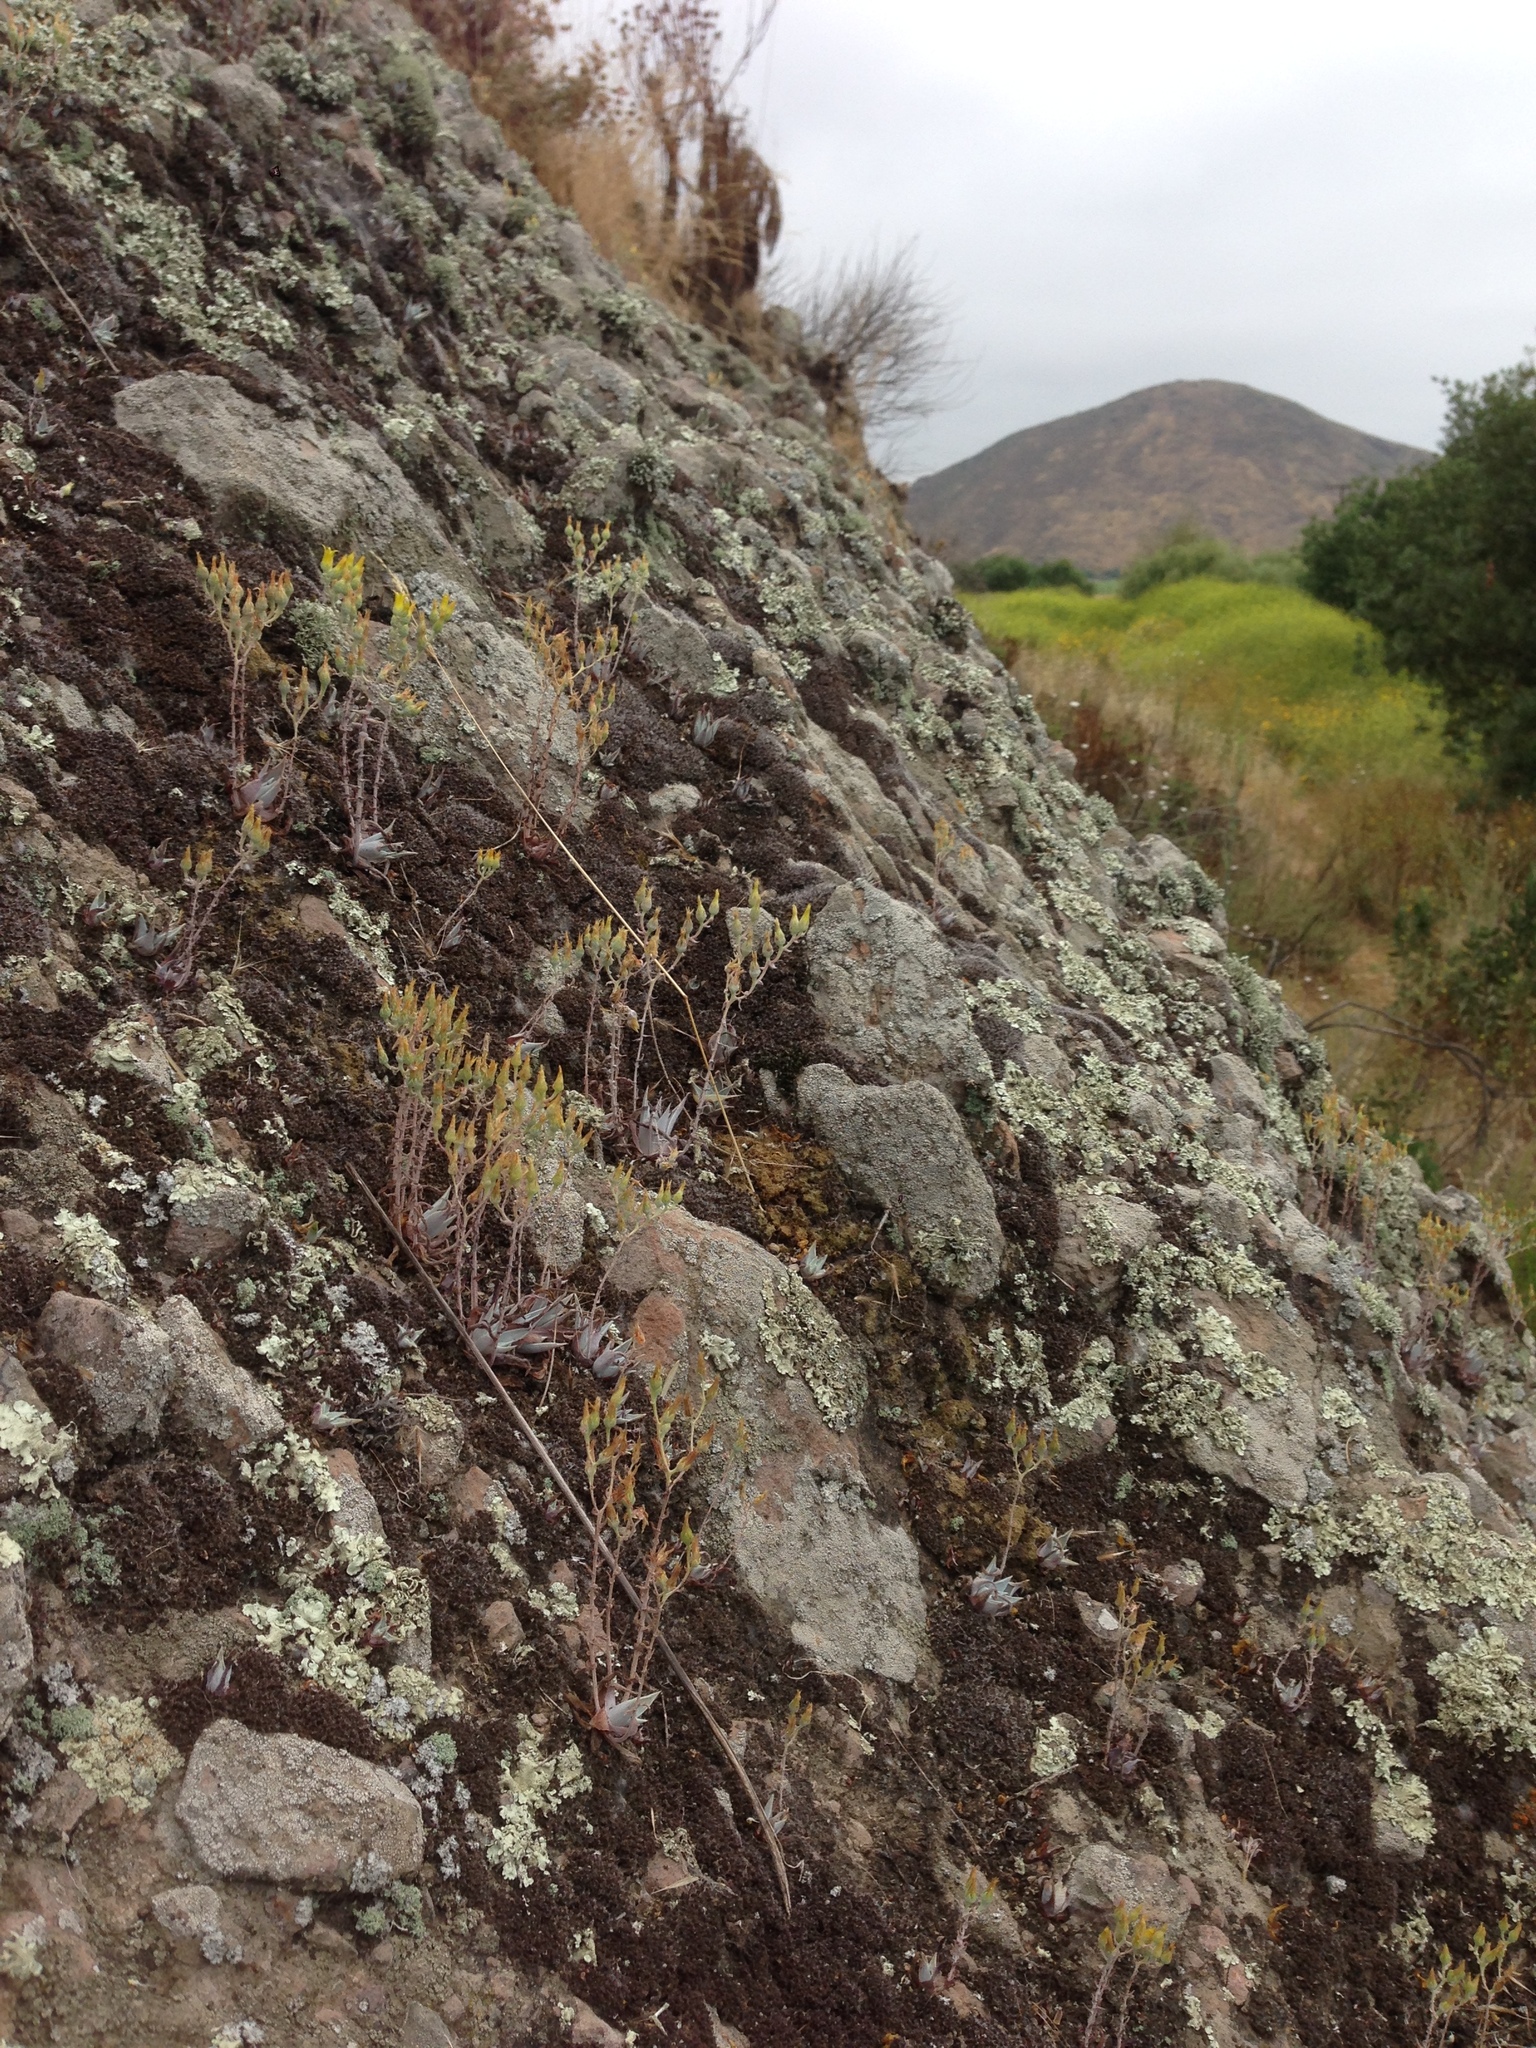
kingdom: Plantae
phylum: Tracheophyta
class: Magnoliopsida
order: Saxifragales
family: Crassulaceae
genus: Dudleya
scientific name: Dudleya verityi
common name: Verity dudleya
